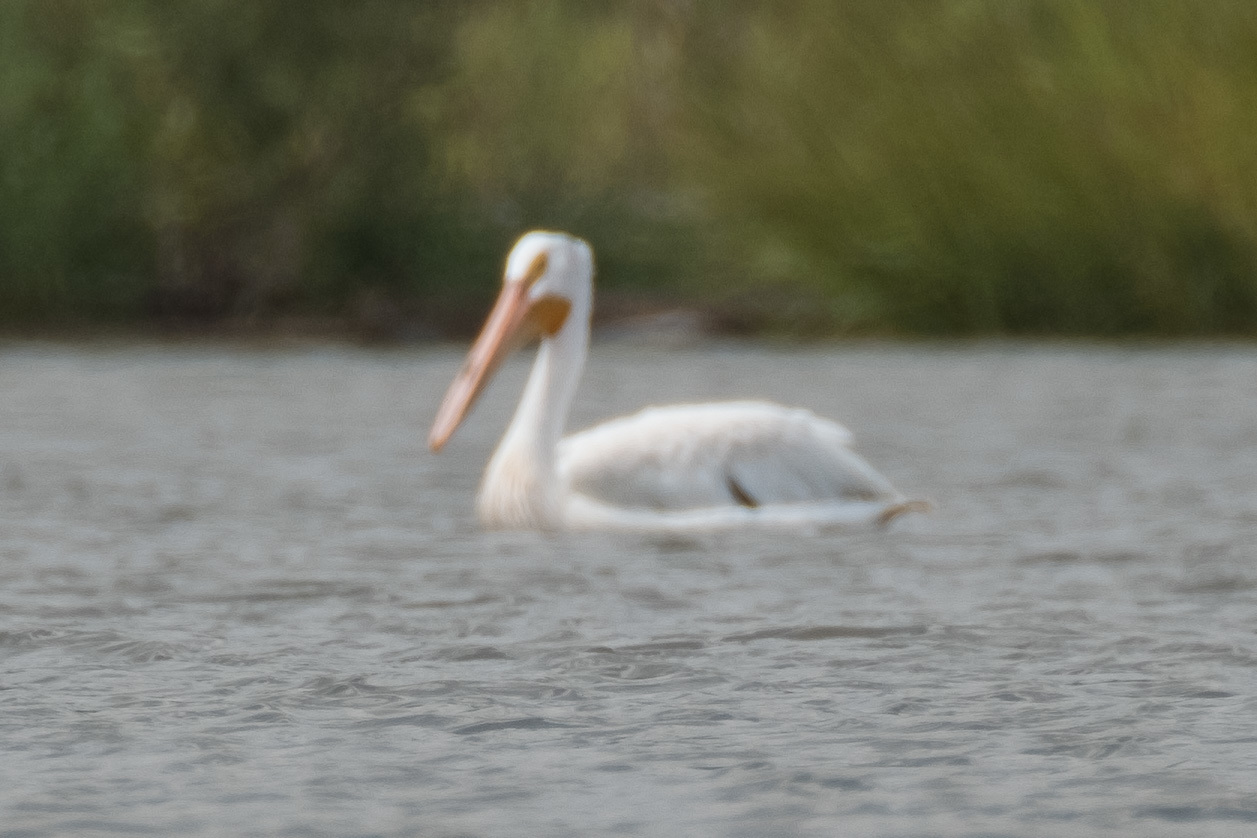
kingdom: Animalia
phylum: Chordata
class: Aves
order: Pelecaniformes
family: Pelecanidae
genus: Pelecanus
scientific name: Pelecanus erythrorhynchos
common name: American white pelican
